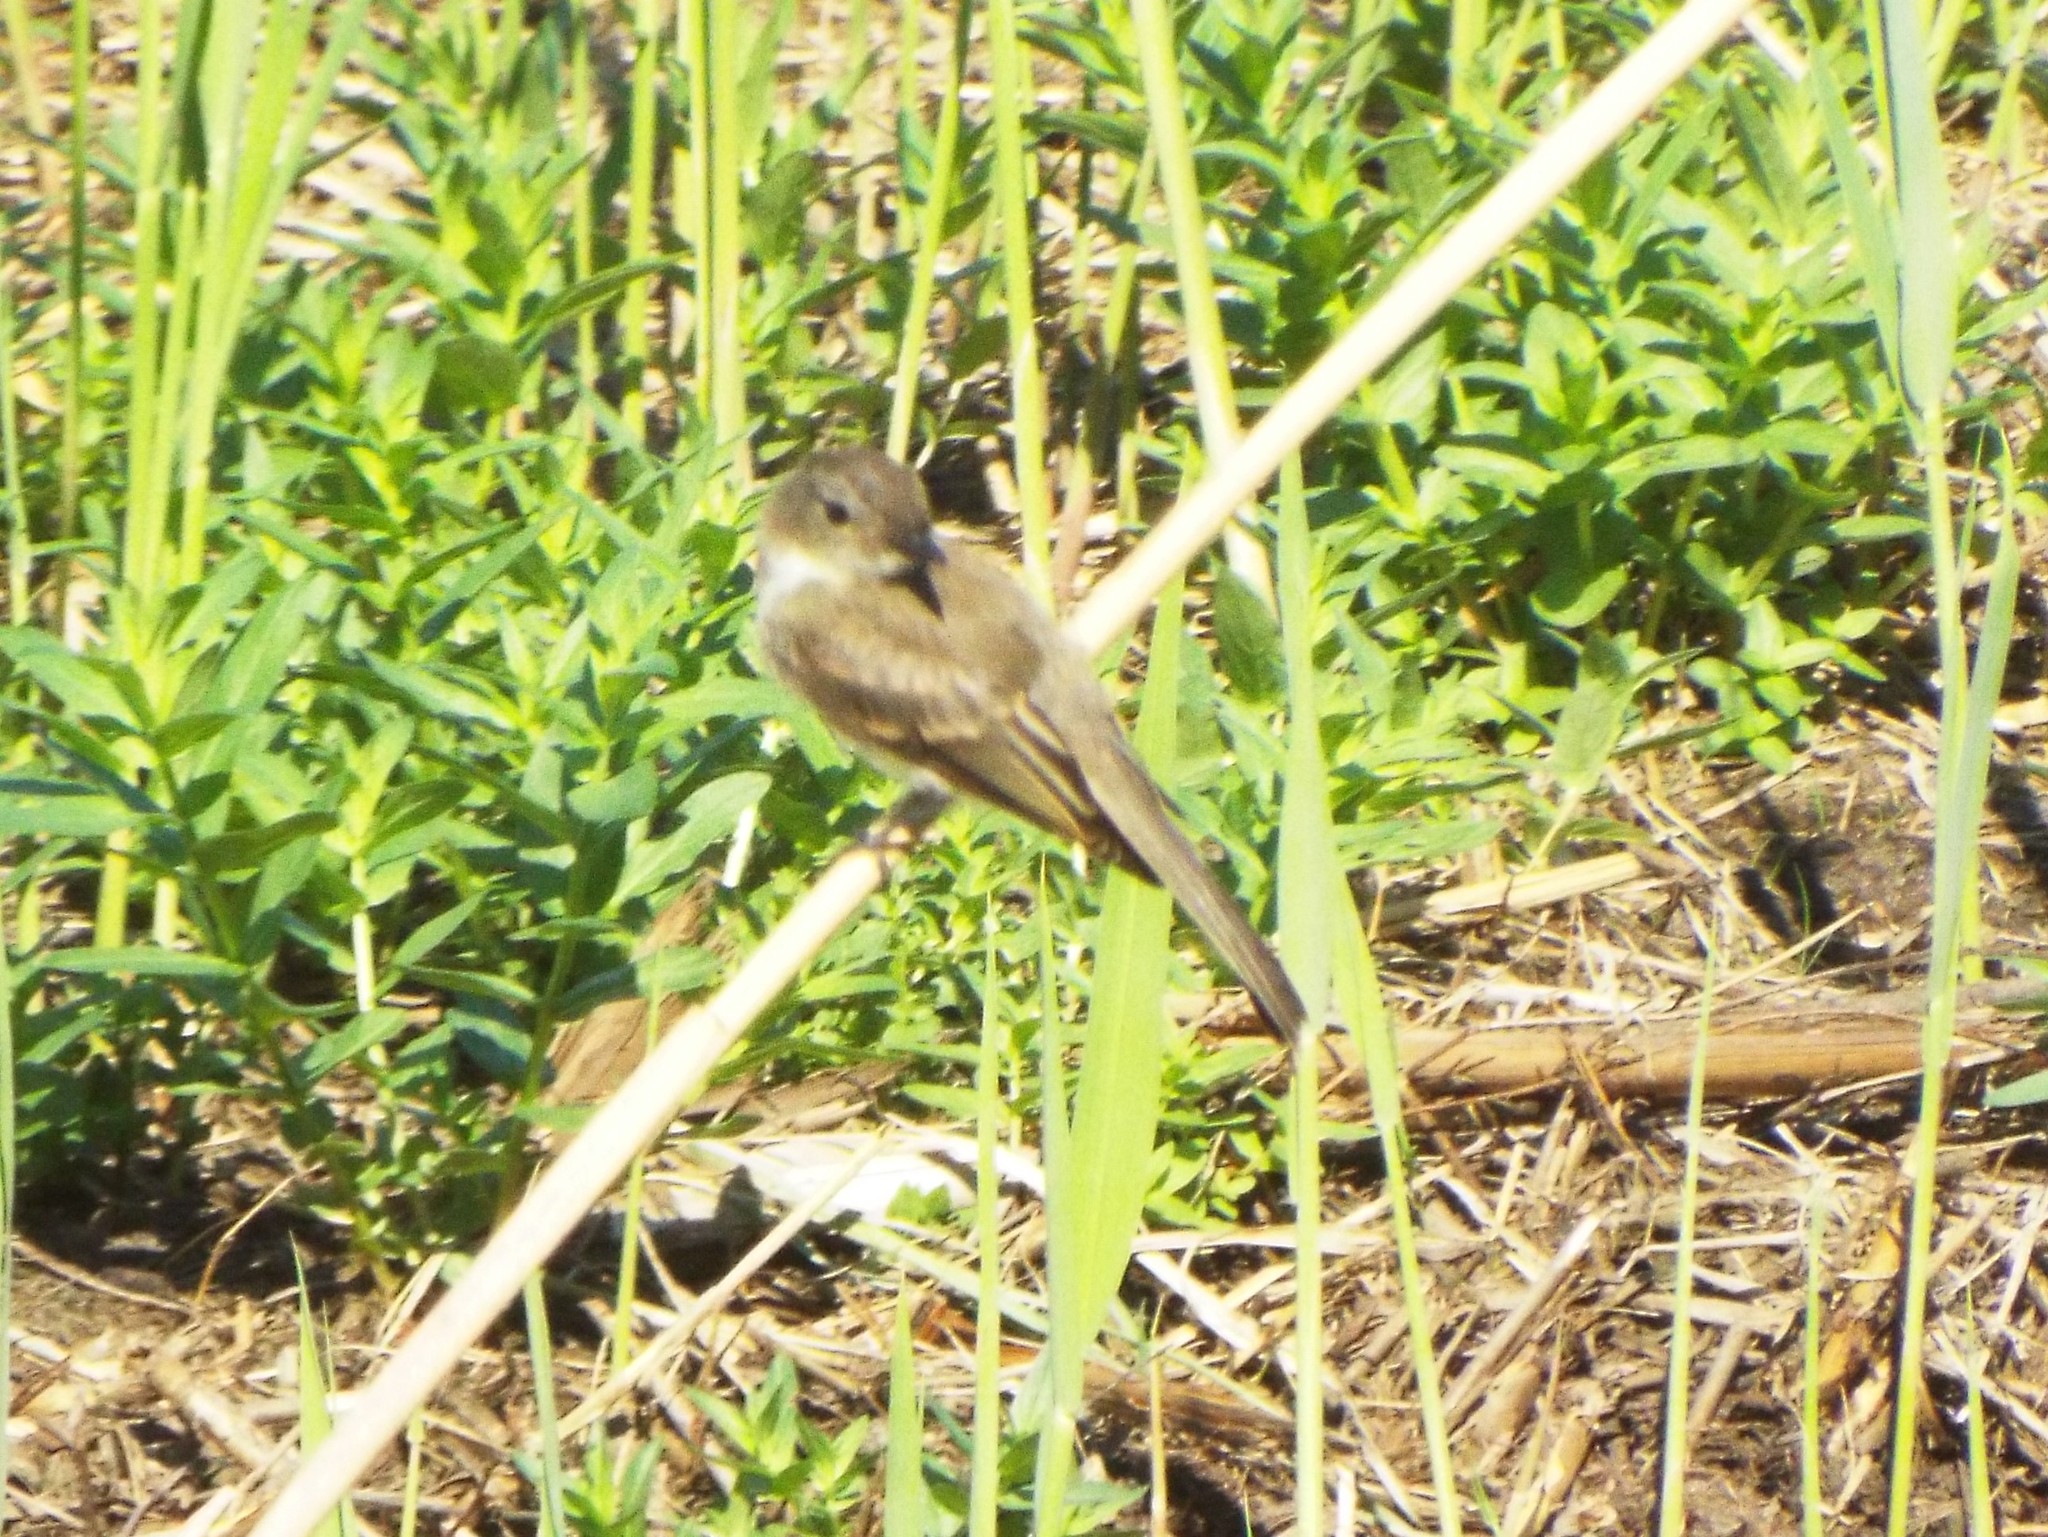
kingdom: Animalia
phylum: Chordata
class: Aves
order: Passeriformes
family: Tyrannidae
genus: Sayornis
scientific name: Sayornis phoebe
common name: Eastern phoebe
